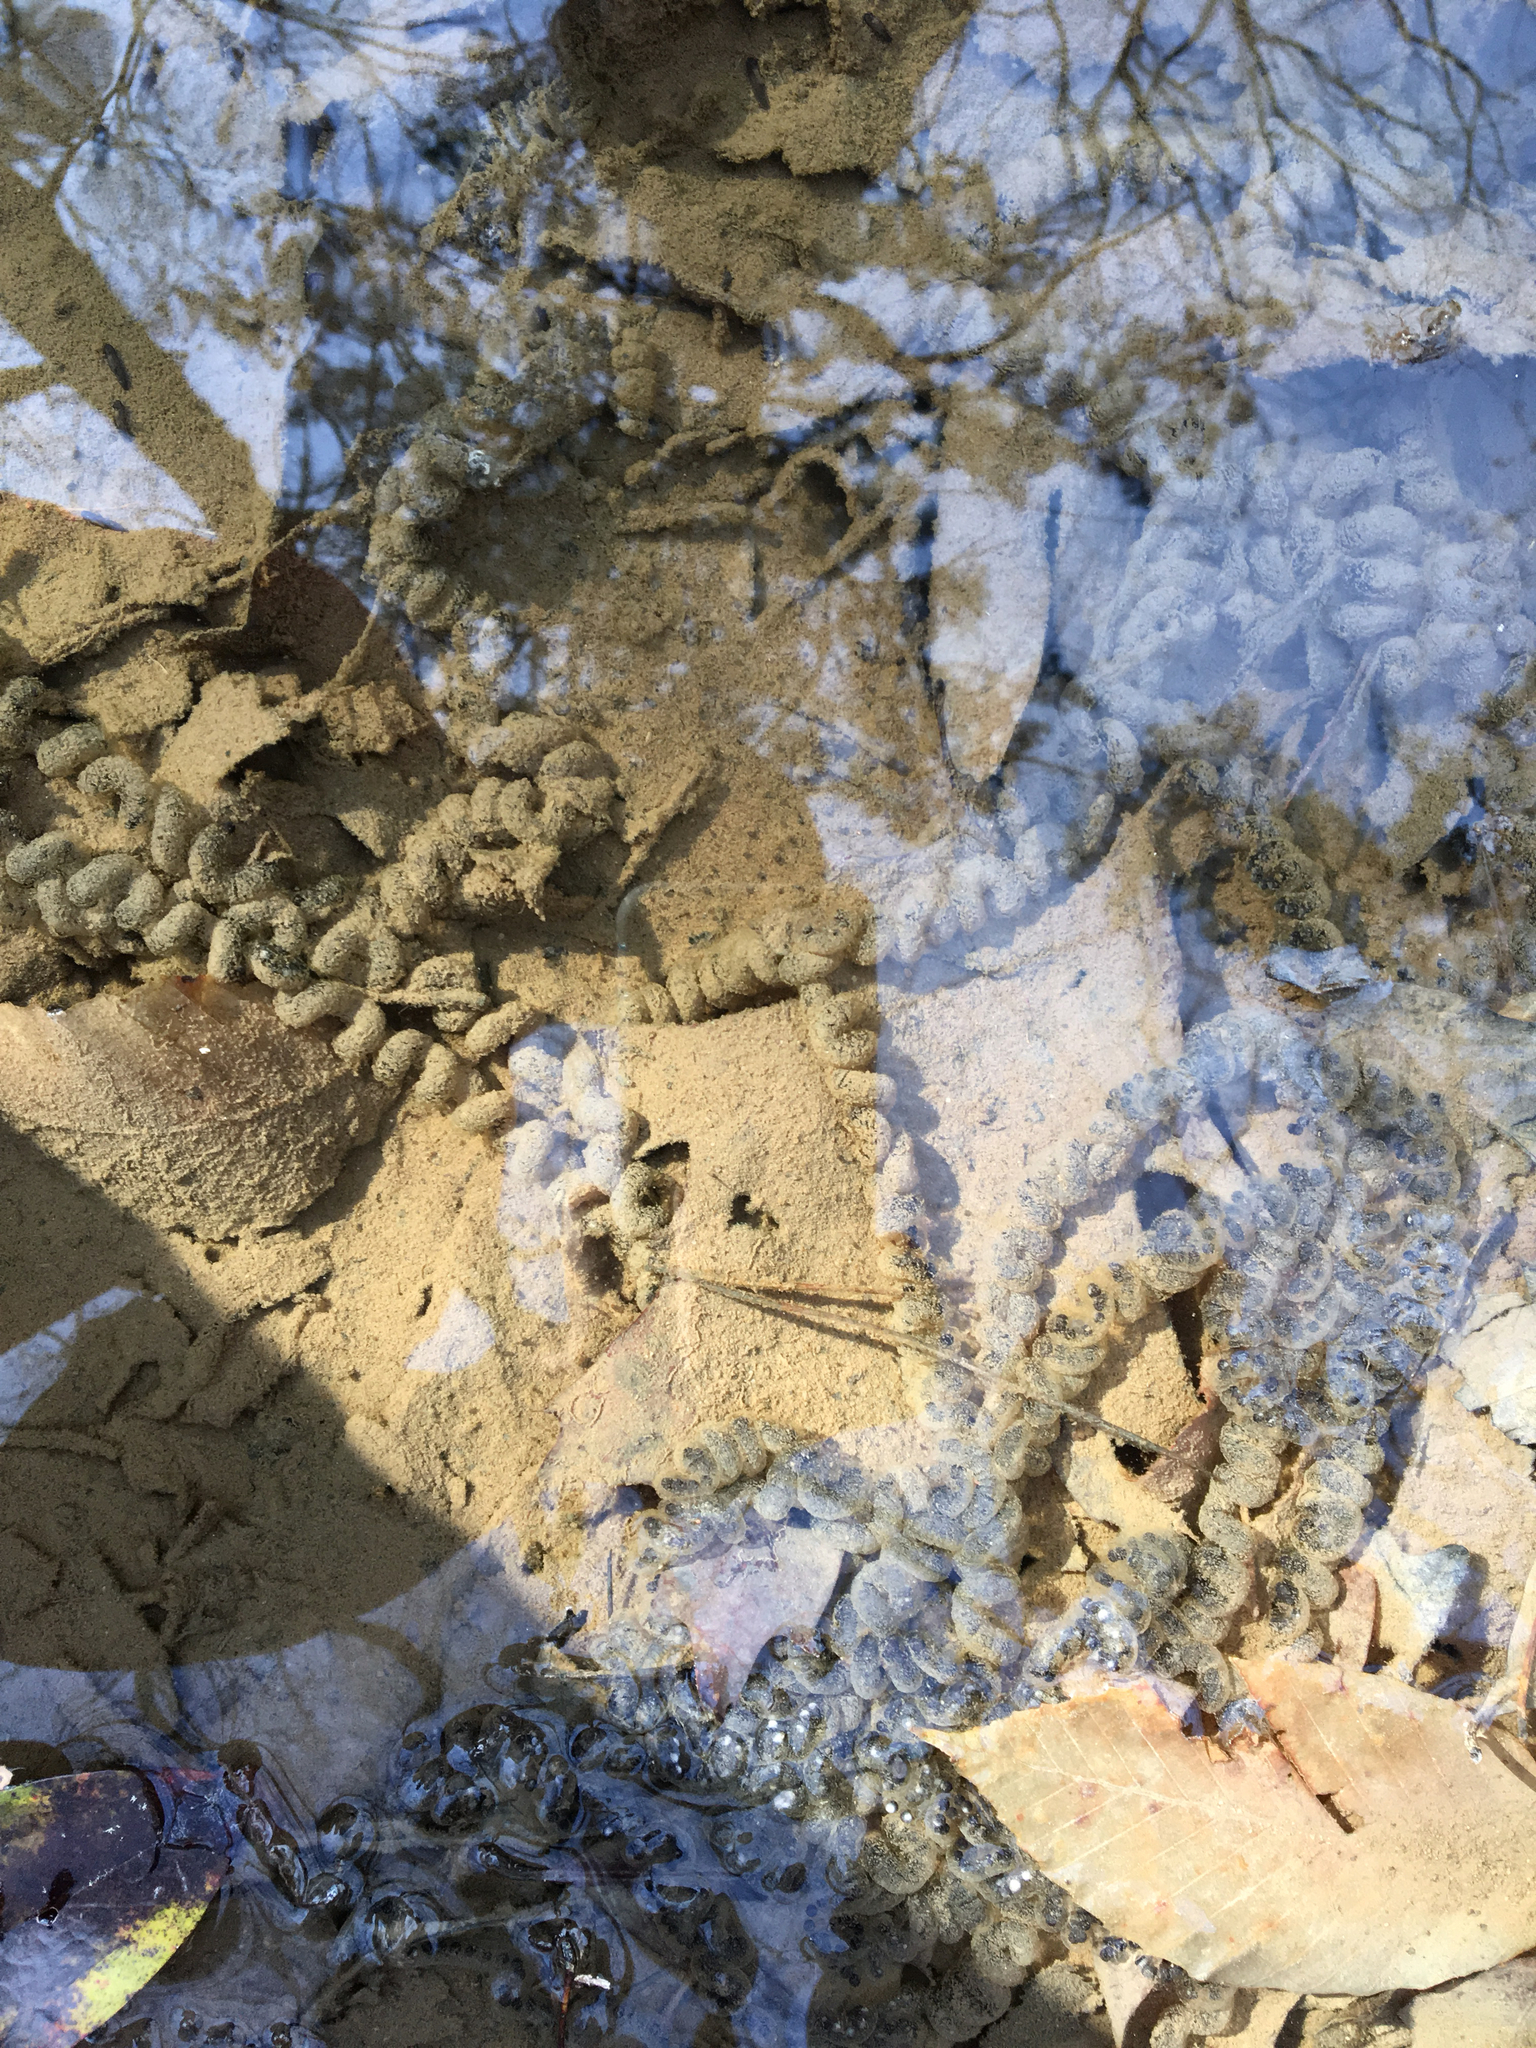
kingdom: Animalia
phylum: Chordata
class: Amphibia
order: Anura
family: Bufonidae
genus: Anaxyrus
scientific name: Anaxyrus americanus
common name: American toad
